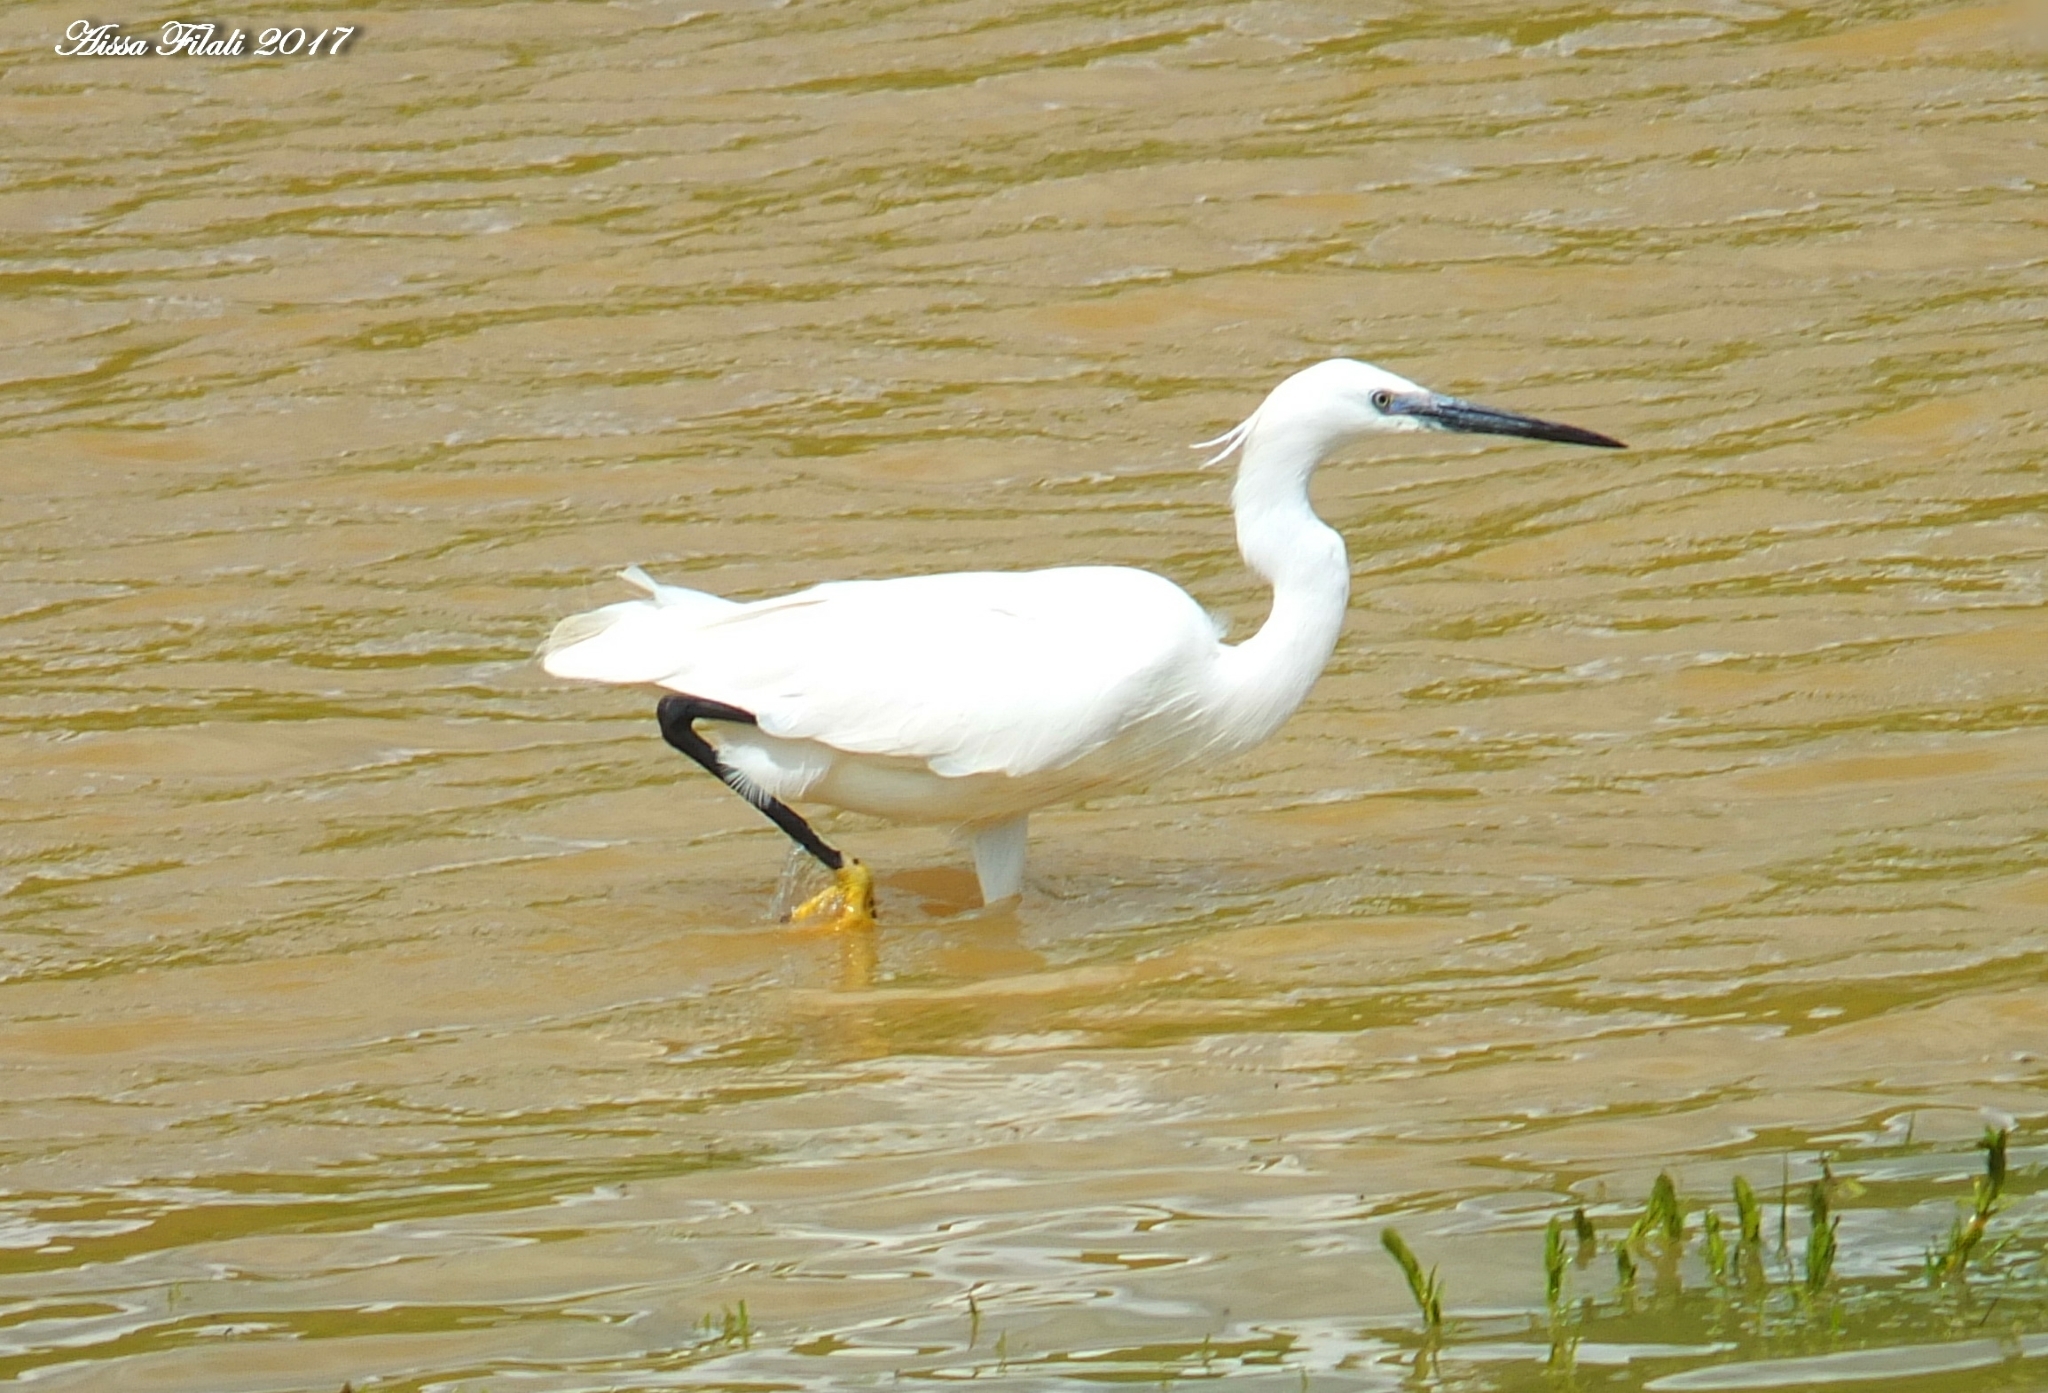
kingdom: Animalia
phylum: Chordata
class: Aves
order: Pelecaniformes
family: Ardeidae
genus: Egretta
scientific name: Egretta garzetta
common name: Little egret
